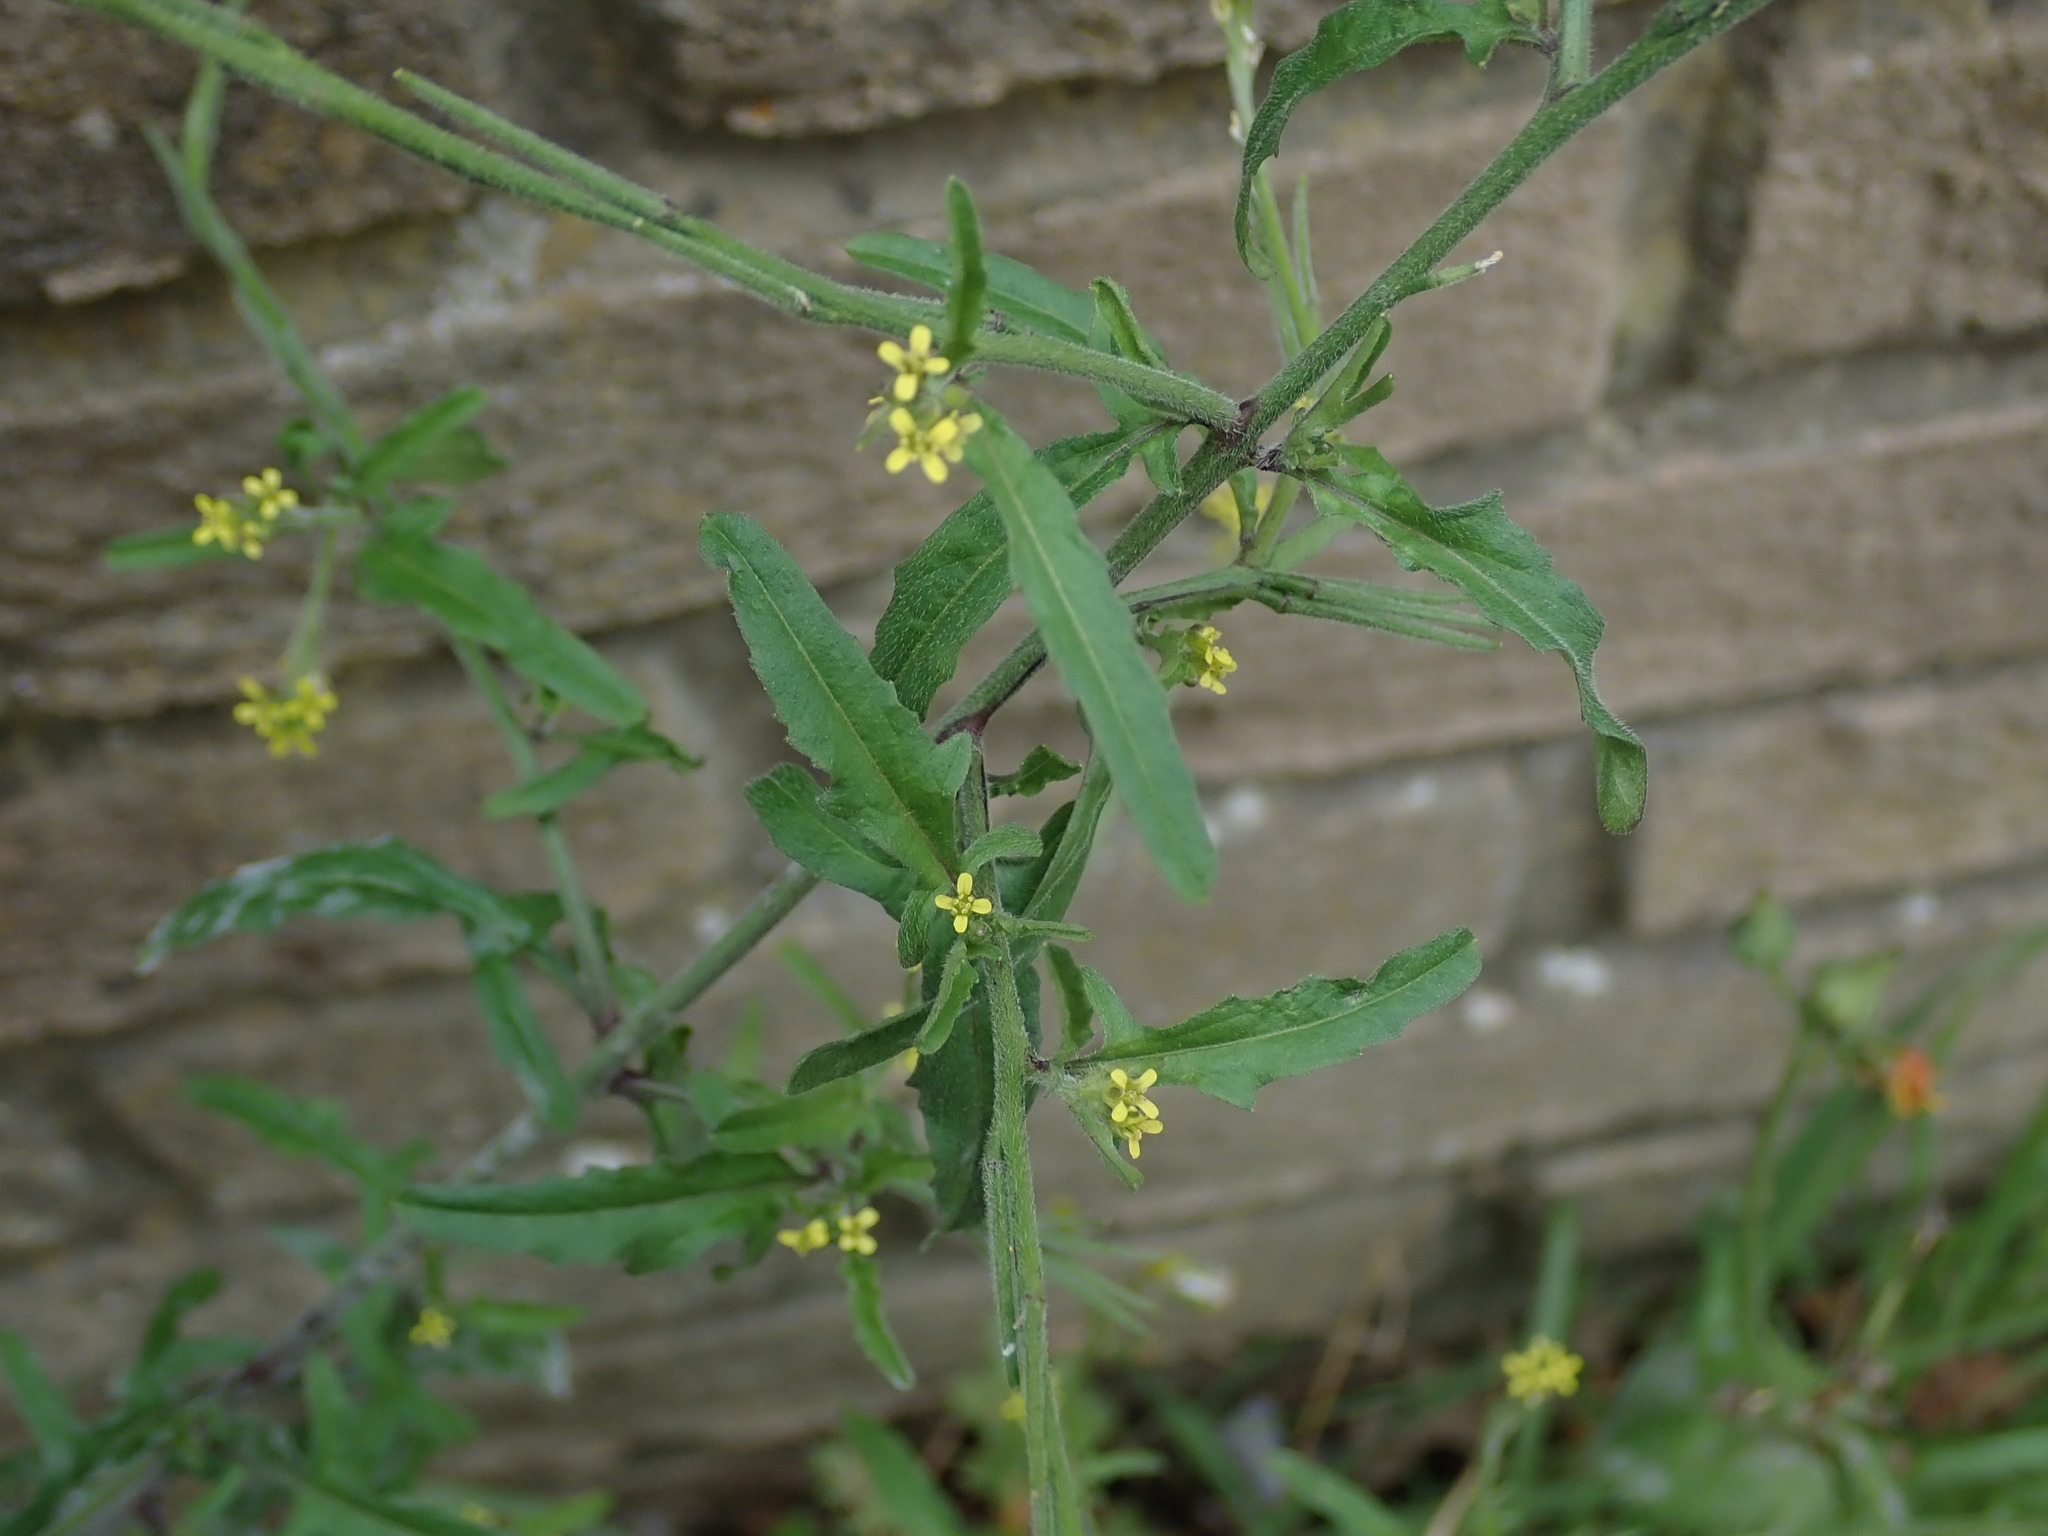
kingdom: Plantae
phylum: Tracheophyta
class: Magnoliopsida
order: Brassicales
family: Brassicaceae
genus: Sisymbrium
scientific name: Sisymbrium officinale
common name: Hedge mustard
